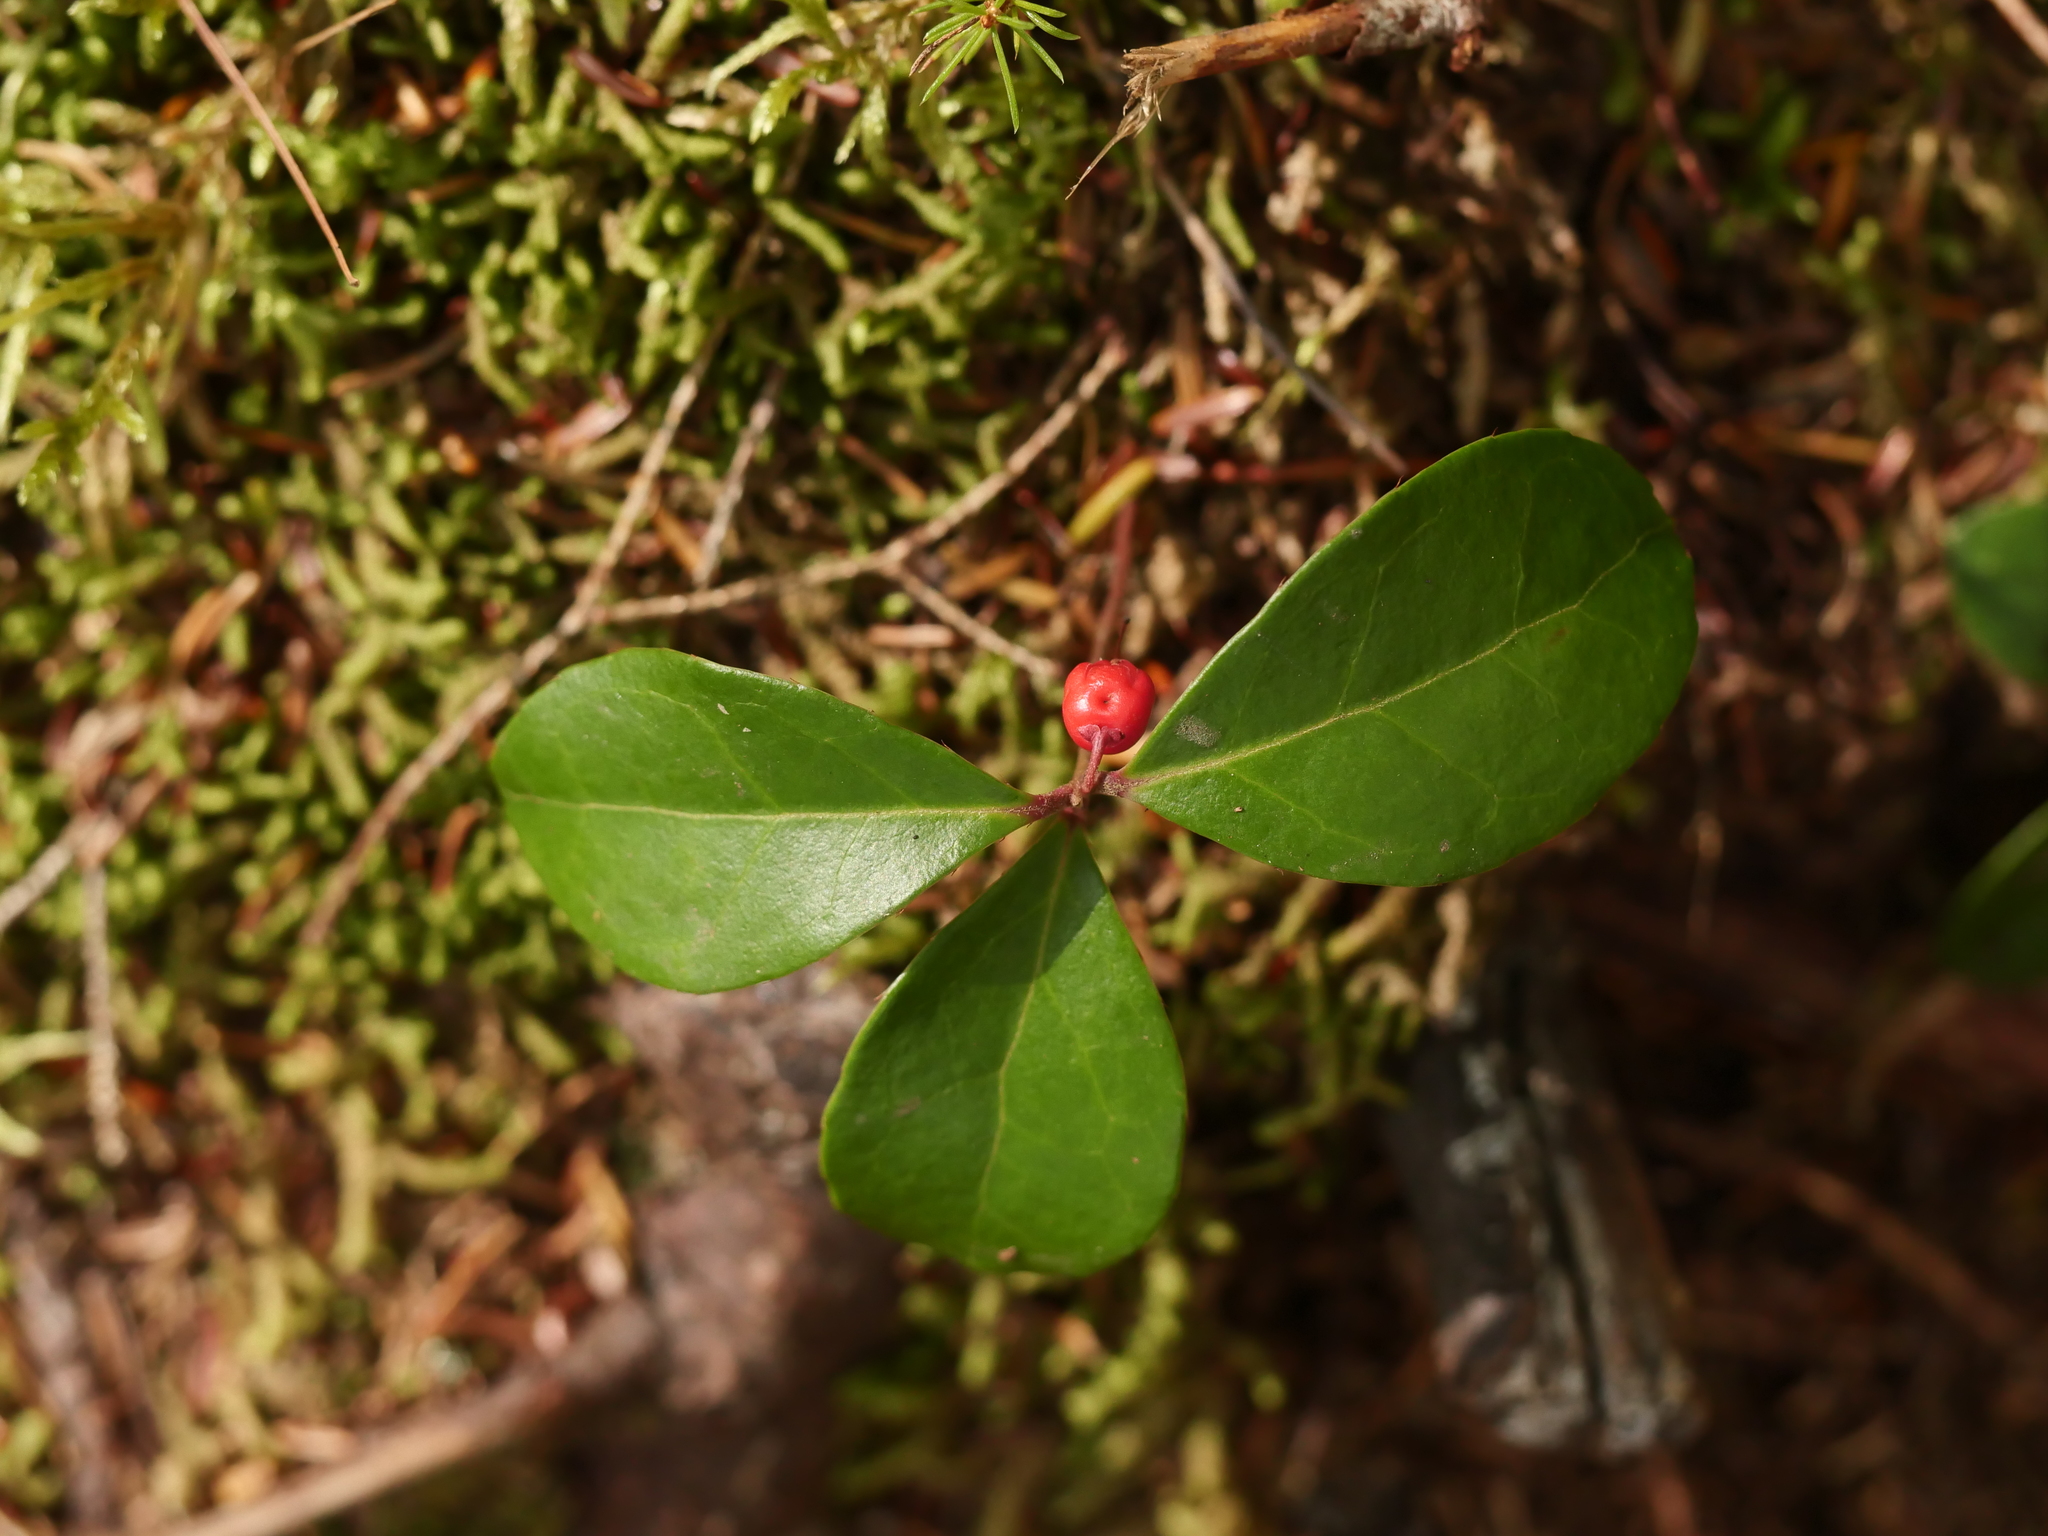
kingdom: Plantae
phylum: Tracheophyta
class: Magnoliopsida
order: Ericales
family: Ericaceae
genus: Gaultheria
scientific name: Gaultheria procumbens
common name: Checkerberry
